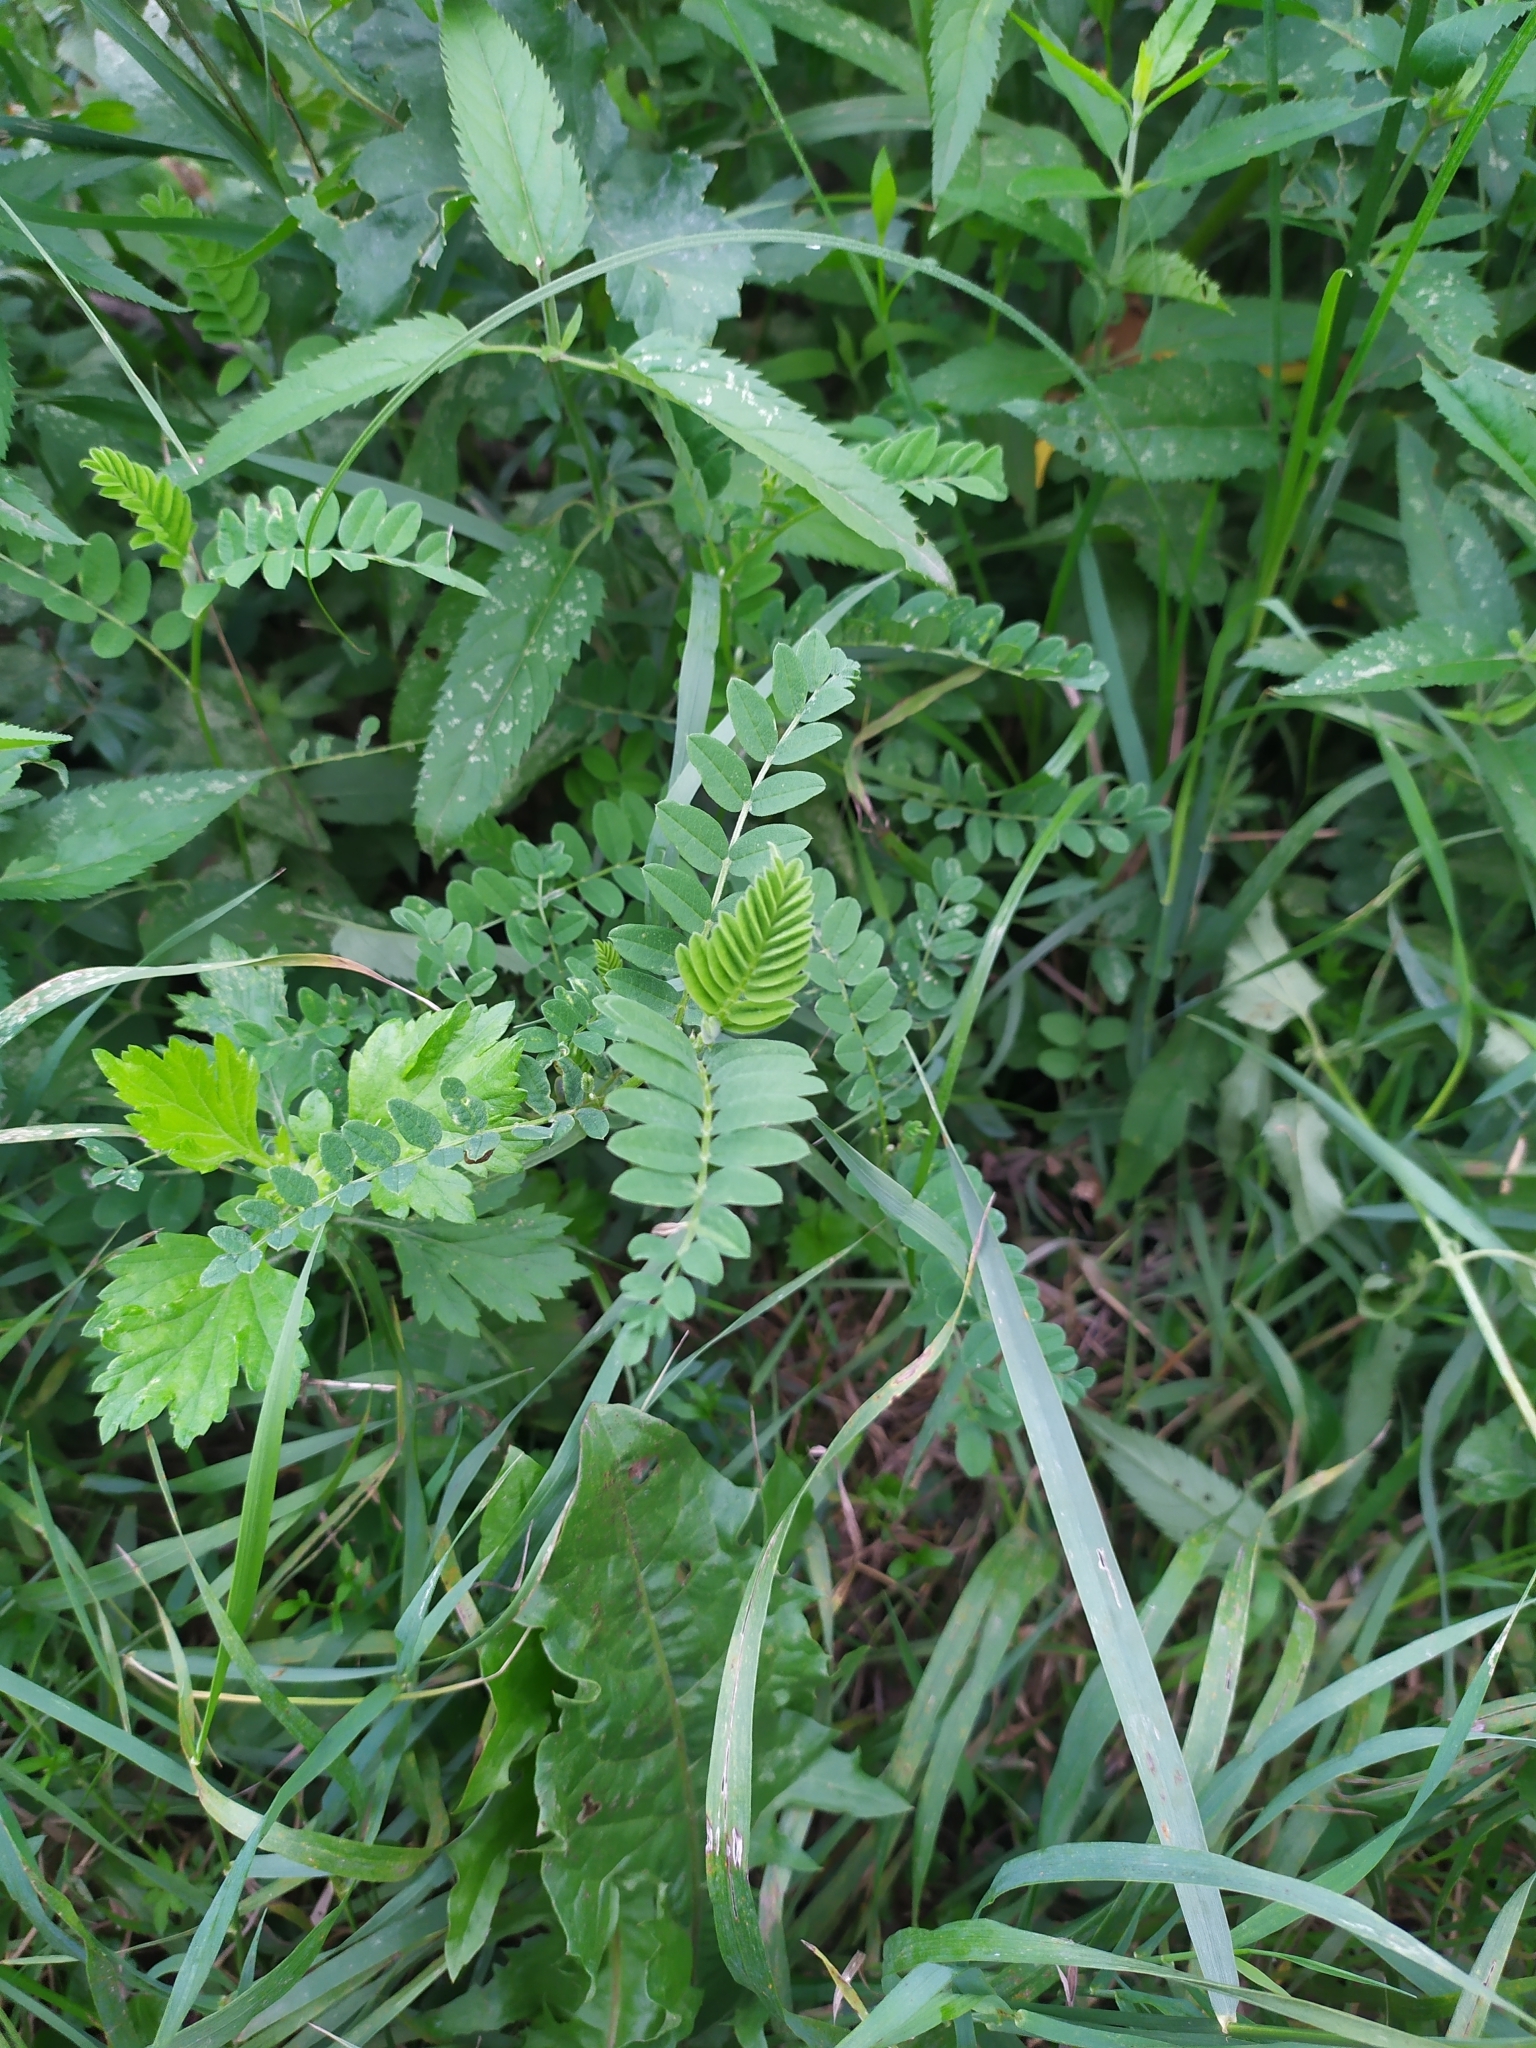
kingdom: Plantae
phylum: Tracheophyta
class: Magnoliopsida
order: Fabales
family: Fabaceae
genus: Astragalus
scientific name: Astragalus cicer
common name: Chick-pea milk-vetch
